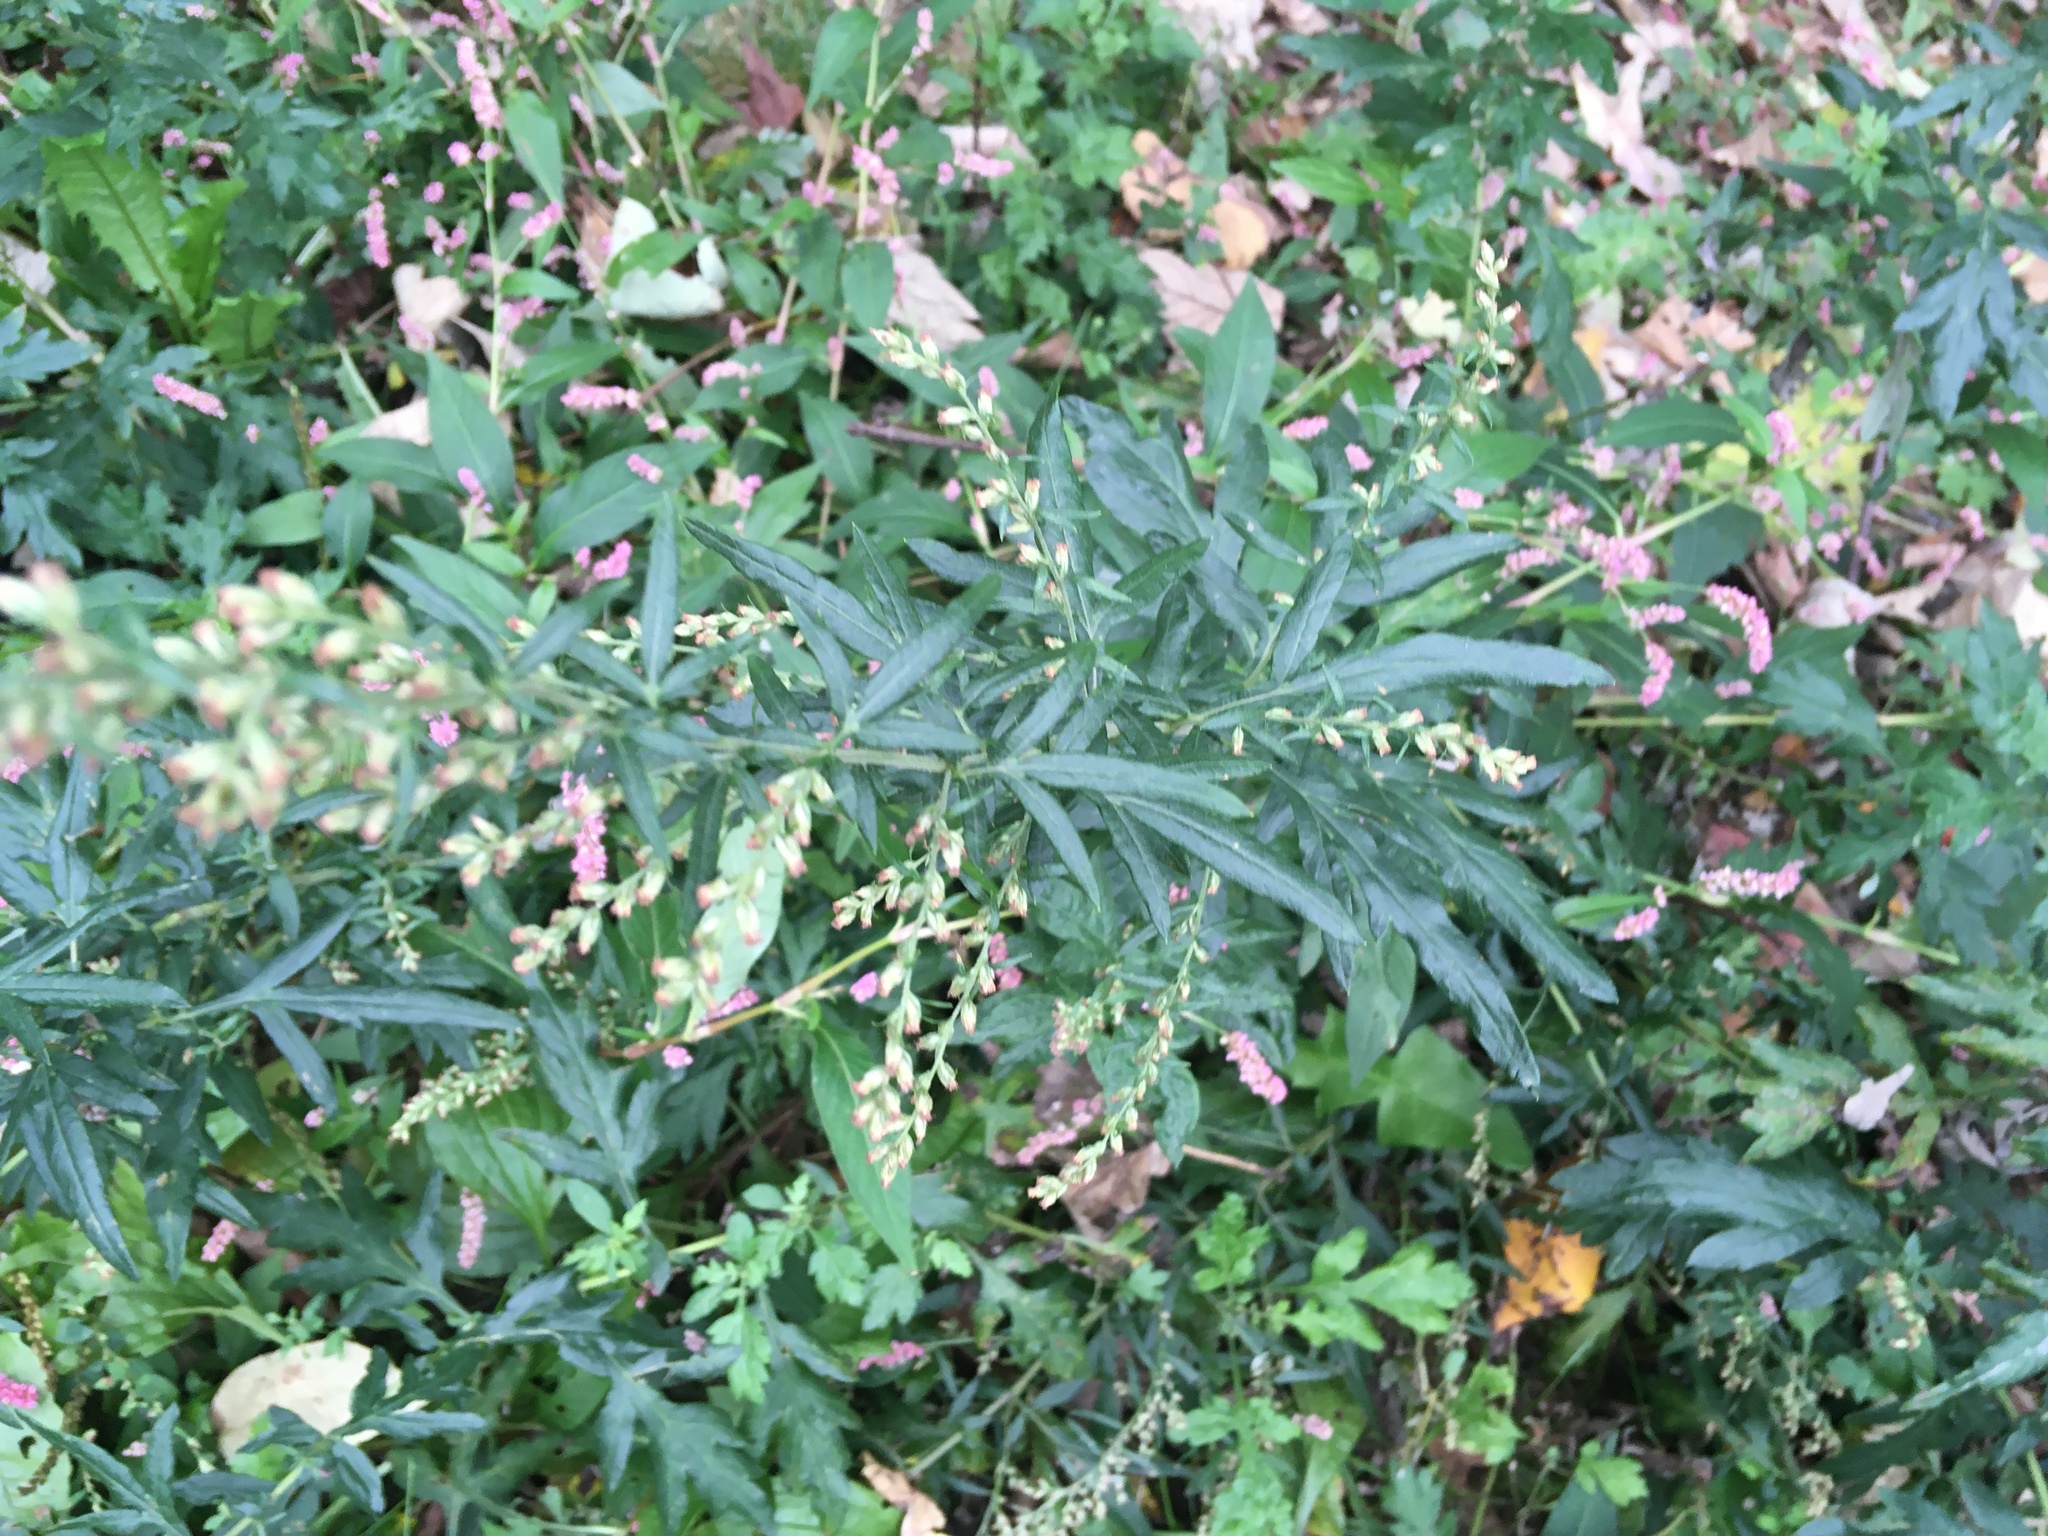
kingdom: Plantae
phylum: Tracheophyta
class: Magnoliopsida
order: Asterales
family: Asteraceae
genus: Artemisia
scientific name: Artemisia vulgaris
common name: Mugwort
